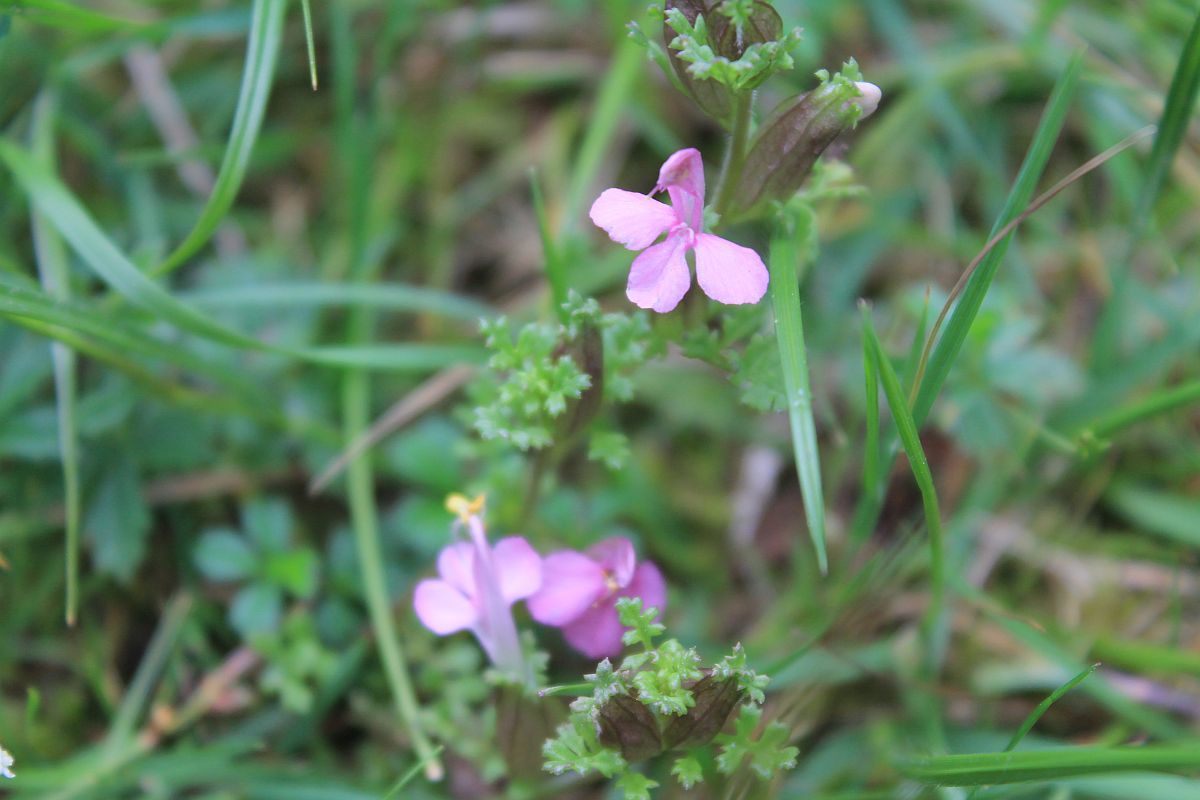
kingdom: Plantae
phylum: Tracheophyta
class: Magnoliopsida
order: Lamiales
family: Orobanchaceae
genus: Pedicularis
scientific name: Pedicularis sylvatica
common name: Lousewort
